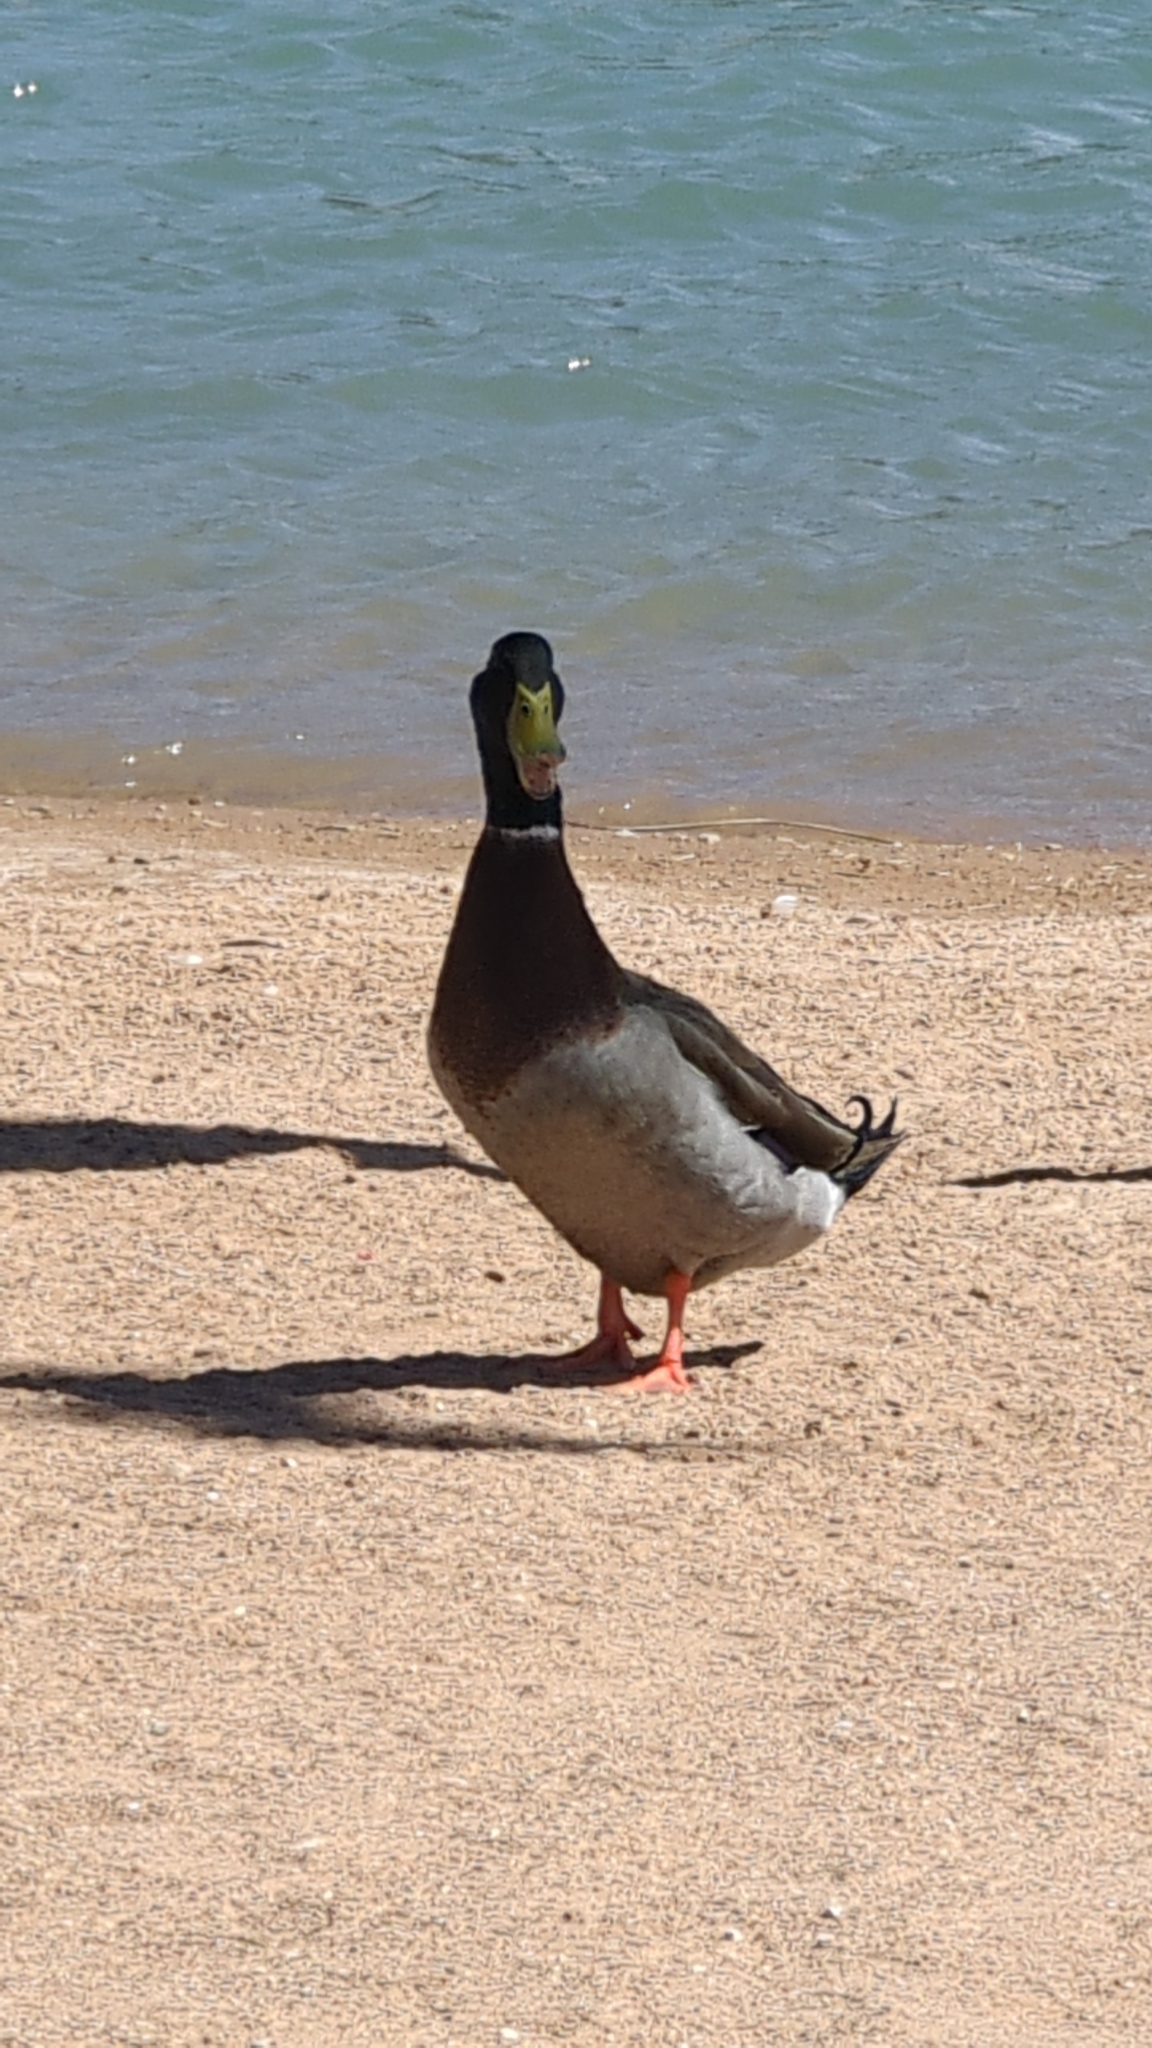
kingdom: Animalia
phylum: Chordata
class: Aves
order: Anseriformes
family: Anatidae
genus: Anas
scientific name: Anas platyrhynchos
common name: Mallard
